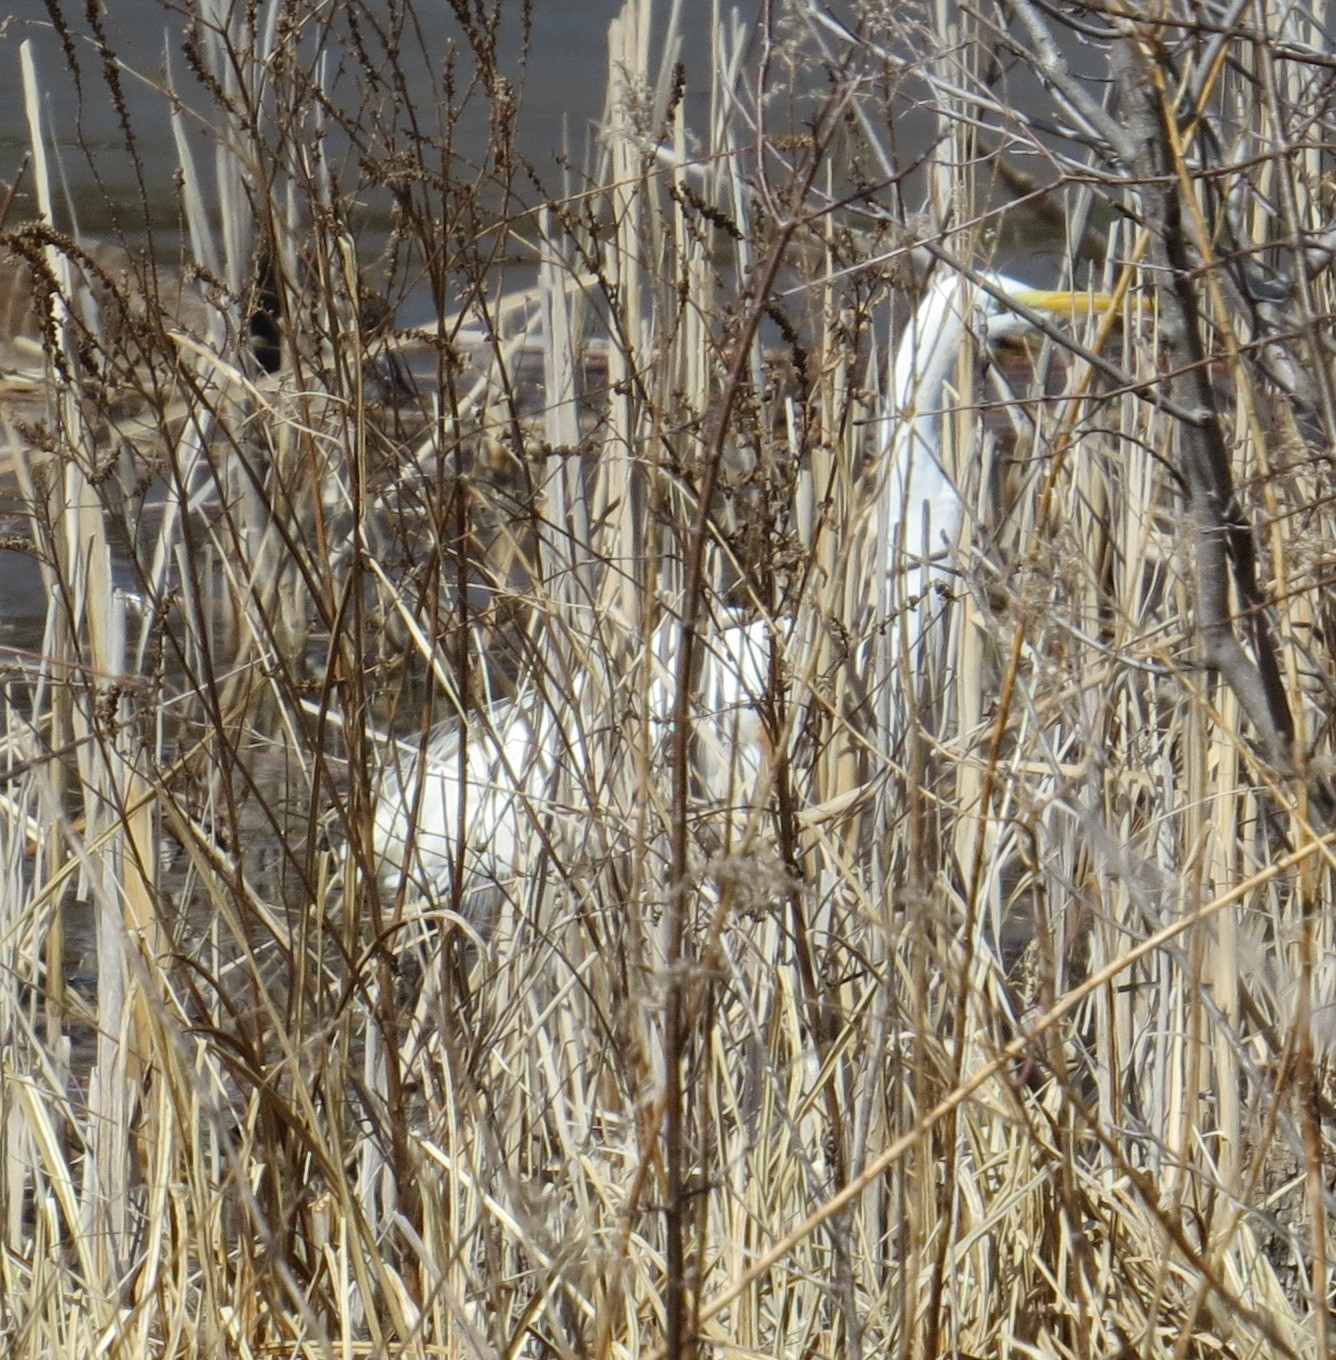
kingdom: Animalia
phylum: Chordata
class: Aves
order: Pelecaniformes
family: Ardeidae
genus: Ardea
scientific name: Ardea alba
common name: Great egret
